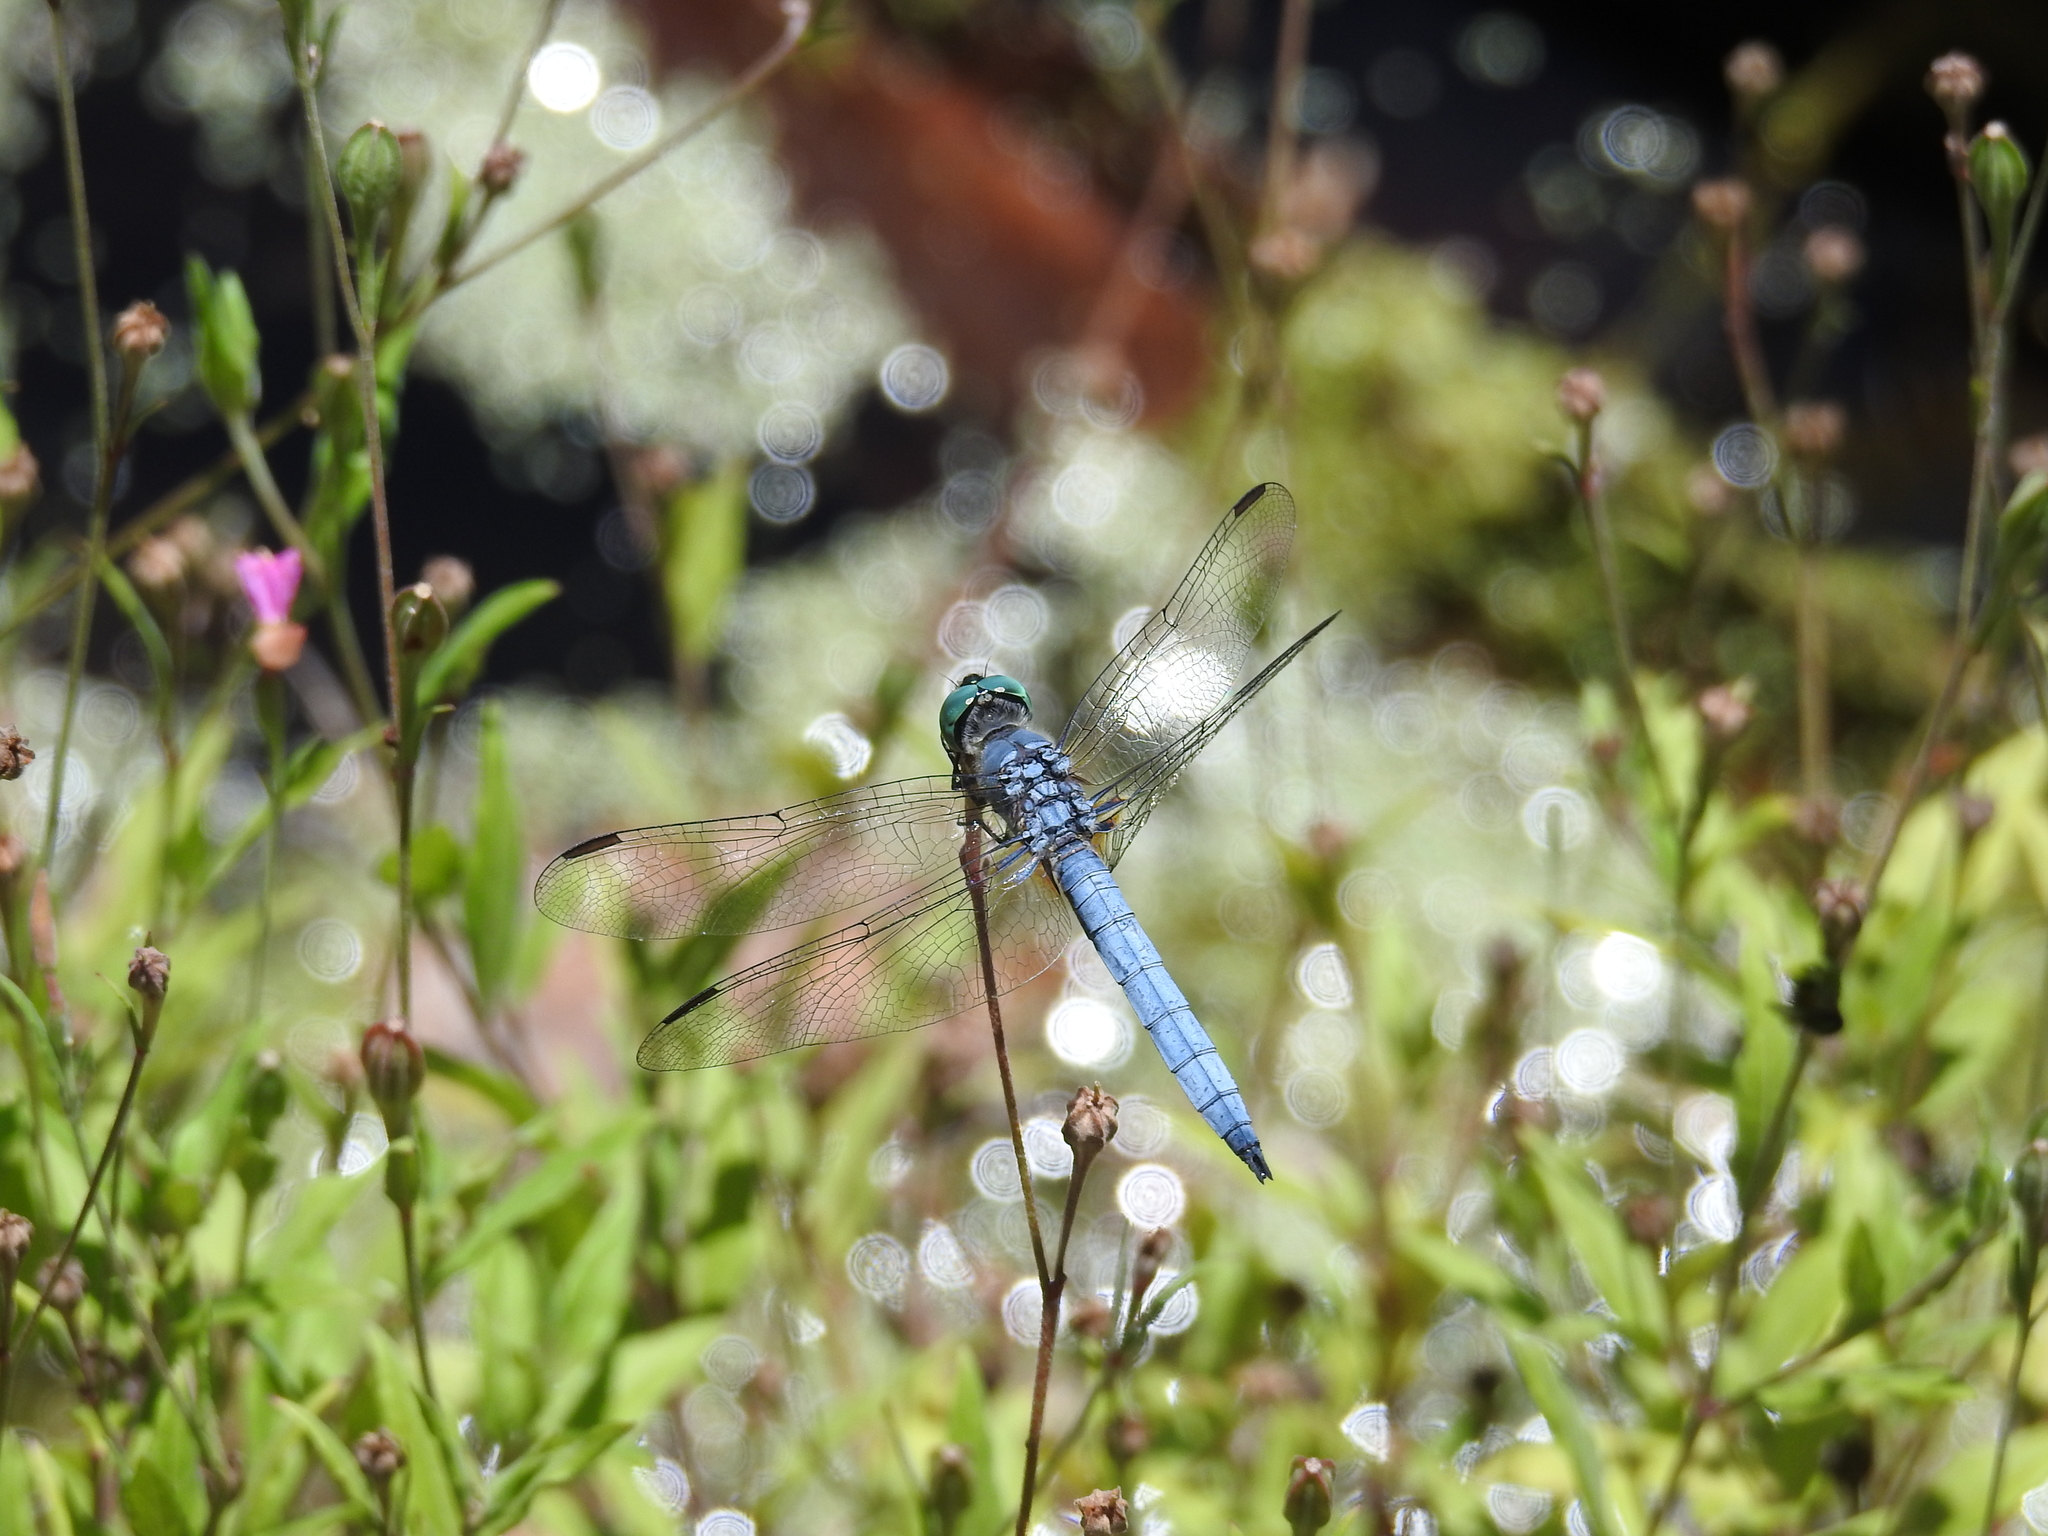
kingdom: Animalia
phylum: Arthropoda
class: Insecta
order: Odonata
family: Libellulidae
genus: Pachydiplax
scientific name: Pachydiplax longipennis
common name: Blue dasher
